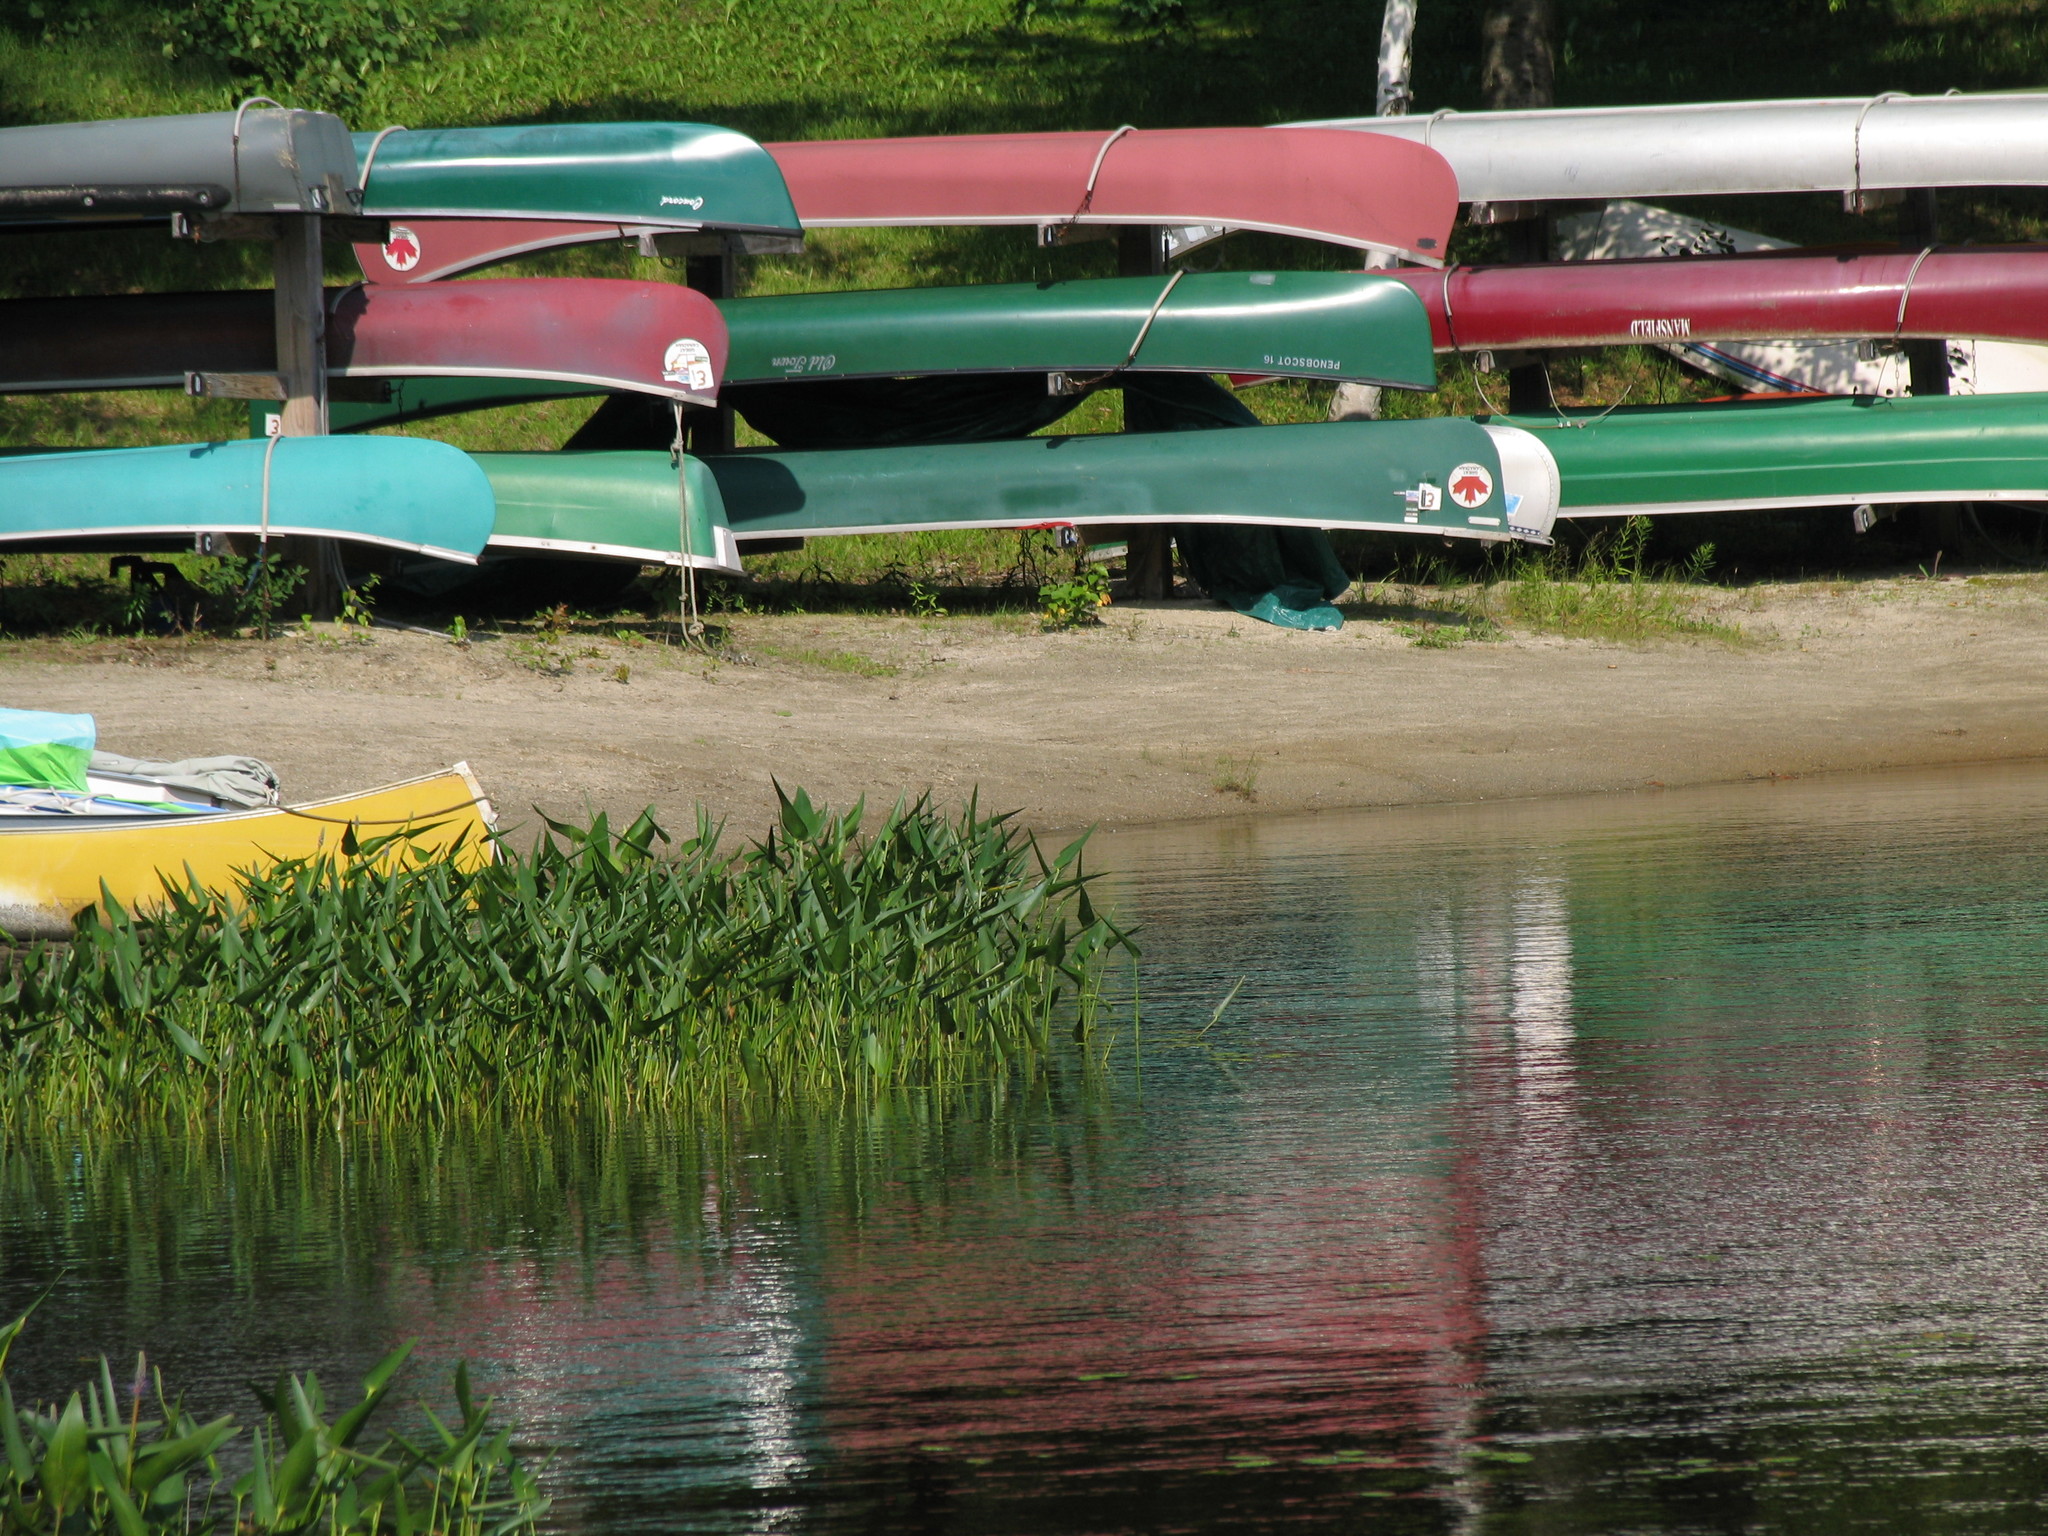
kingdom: Plantae
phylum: Tracheophyta
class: Liliopsida
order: Commelinales
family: Pontederiaceae
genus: Pontederia
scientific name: Pontederia cordata
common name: Pickerelweed
